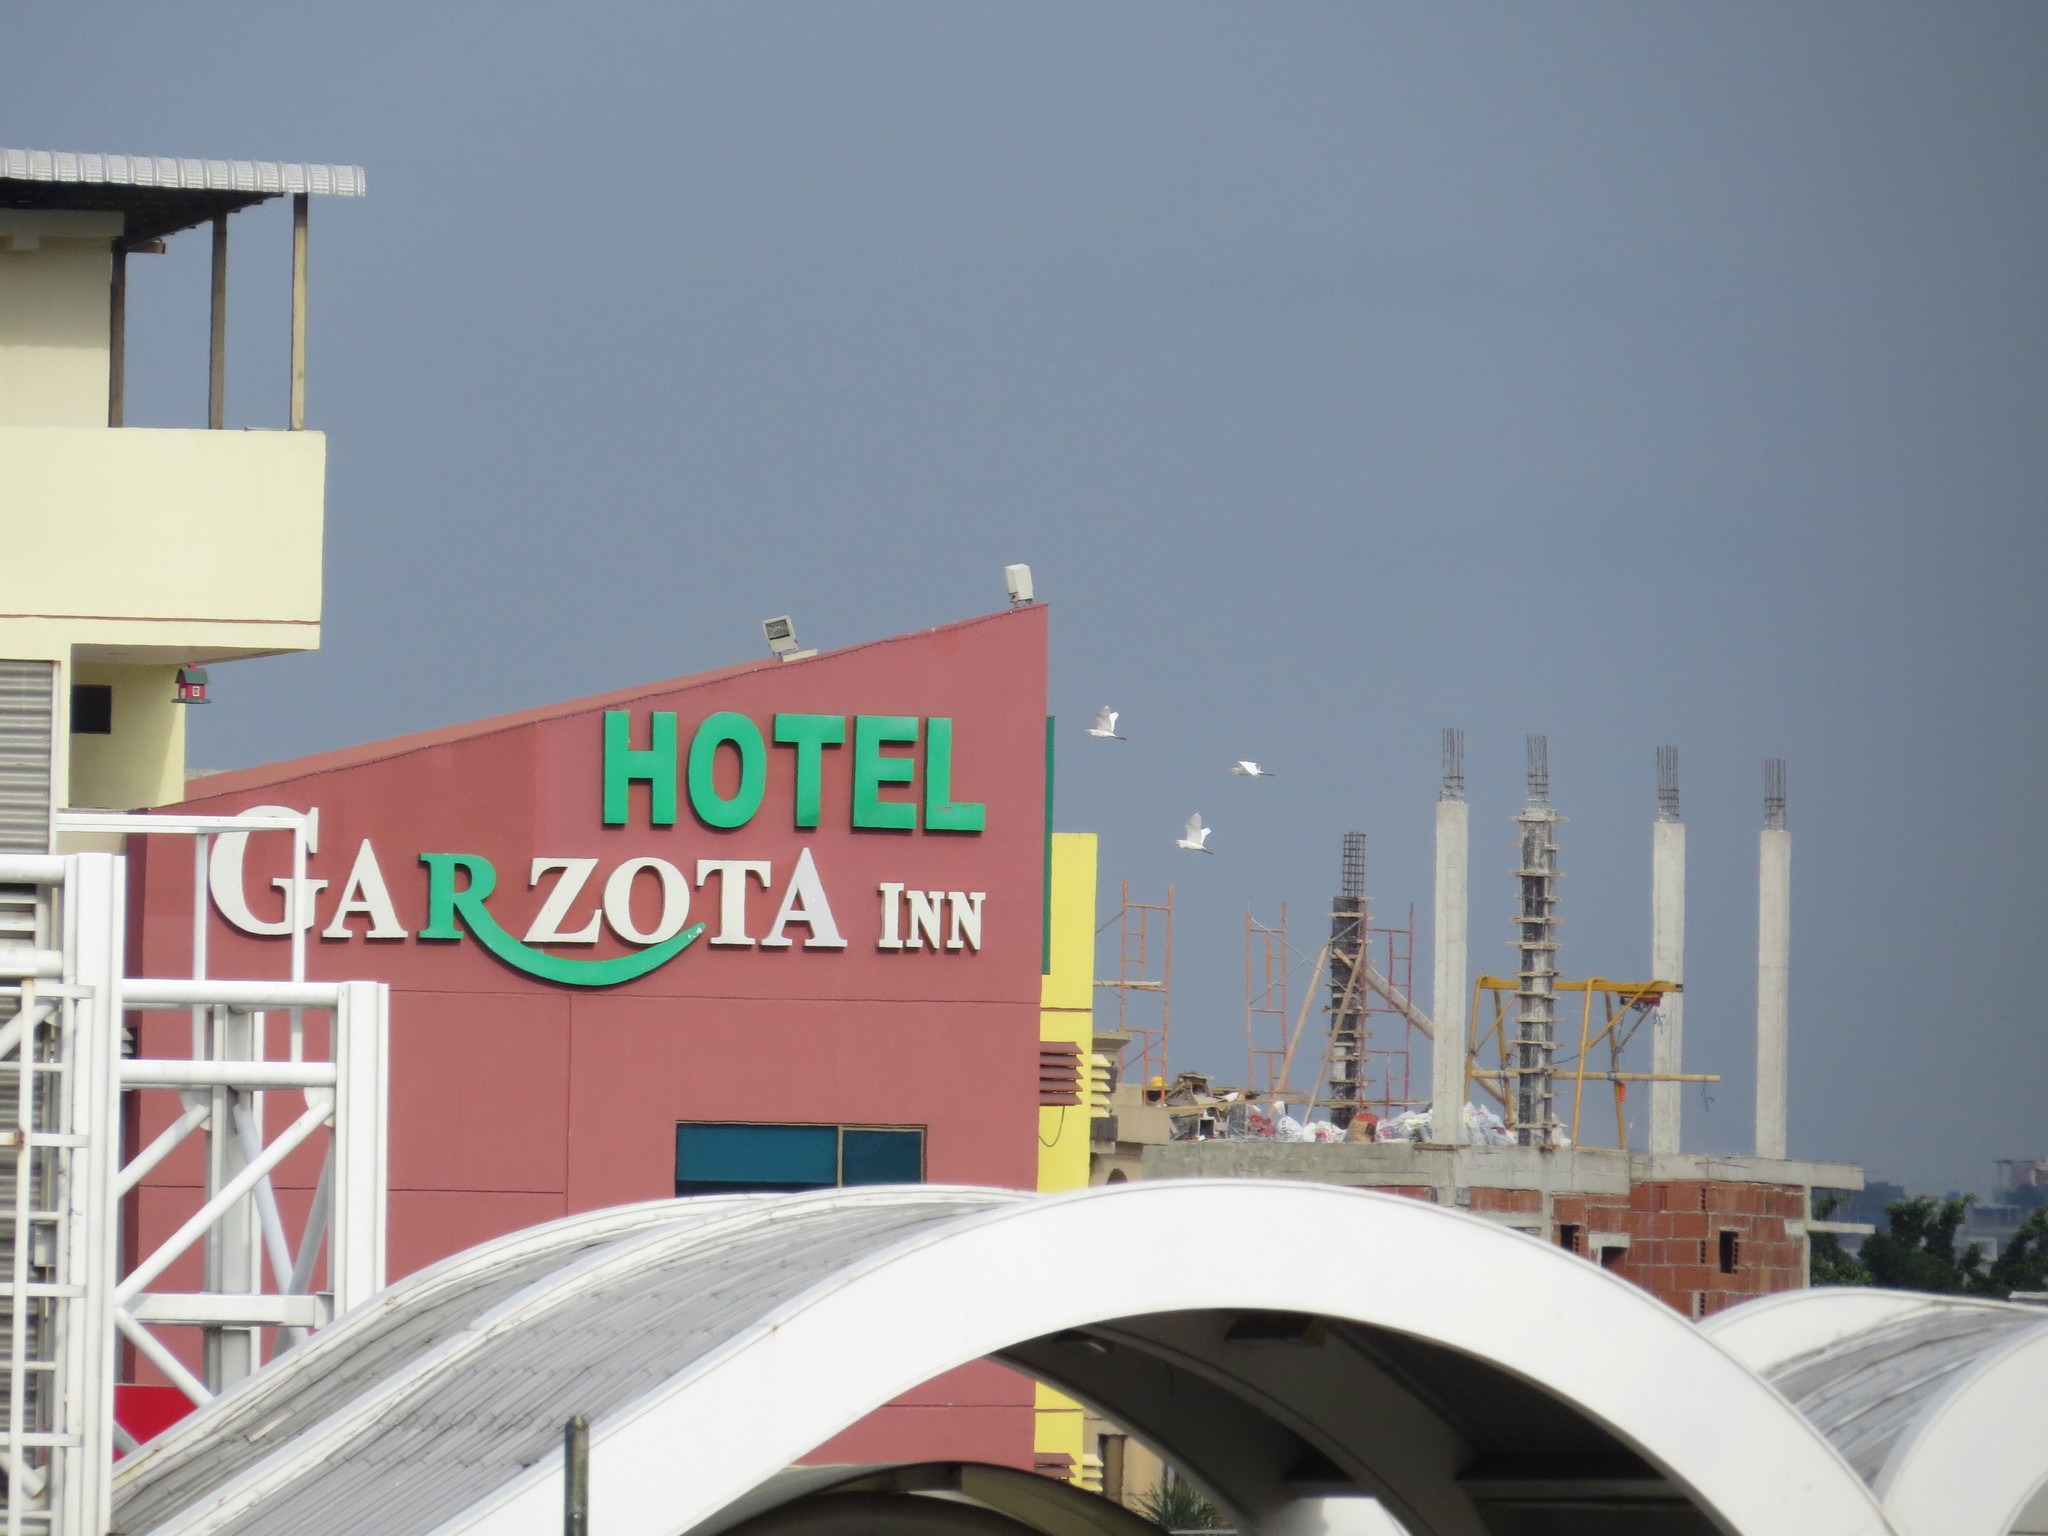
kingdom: Animalia
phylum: Chordata
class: Aves
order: Pelecaniformes
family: Ardeidae
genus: Bubulcus
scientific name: Bubulcus ibis
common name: Cattle egret
